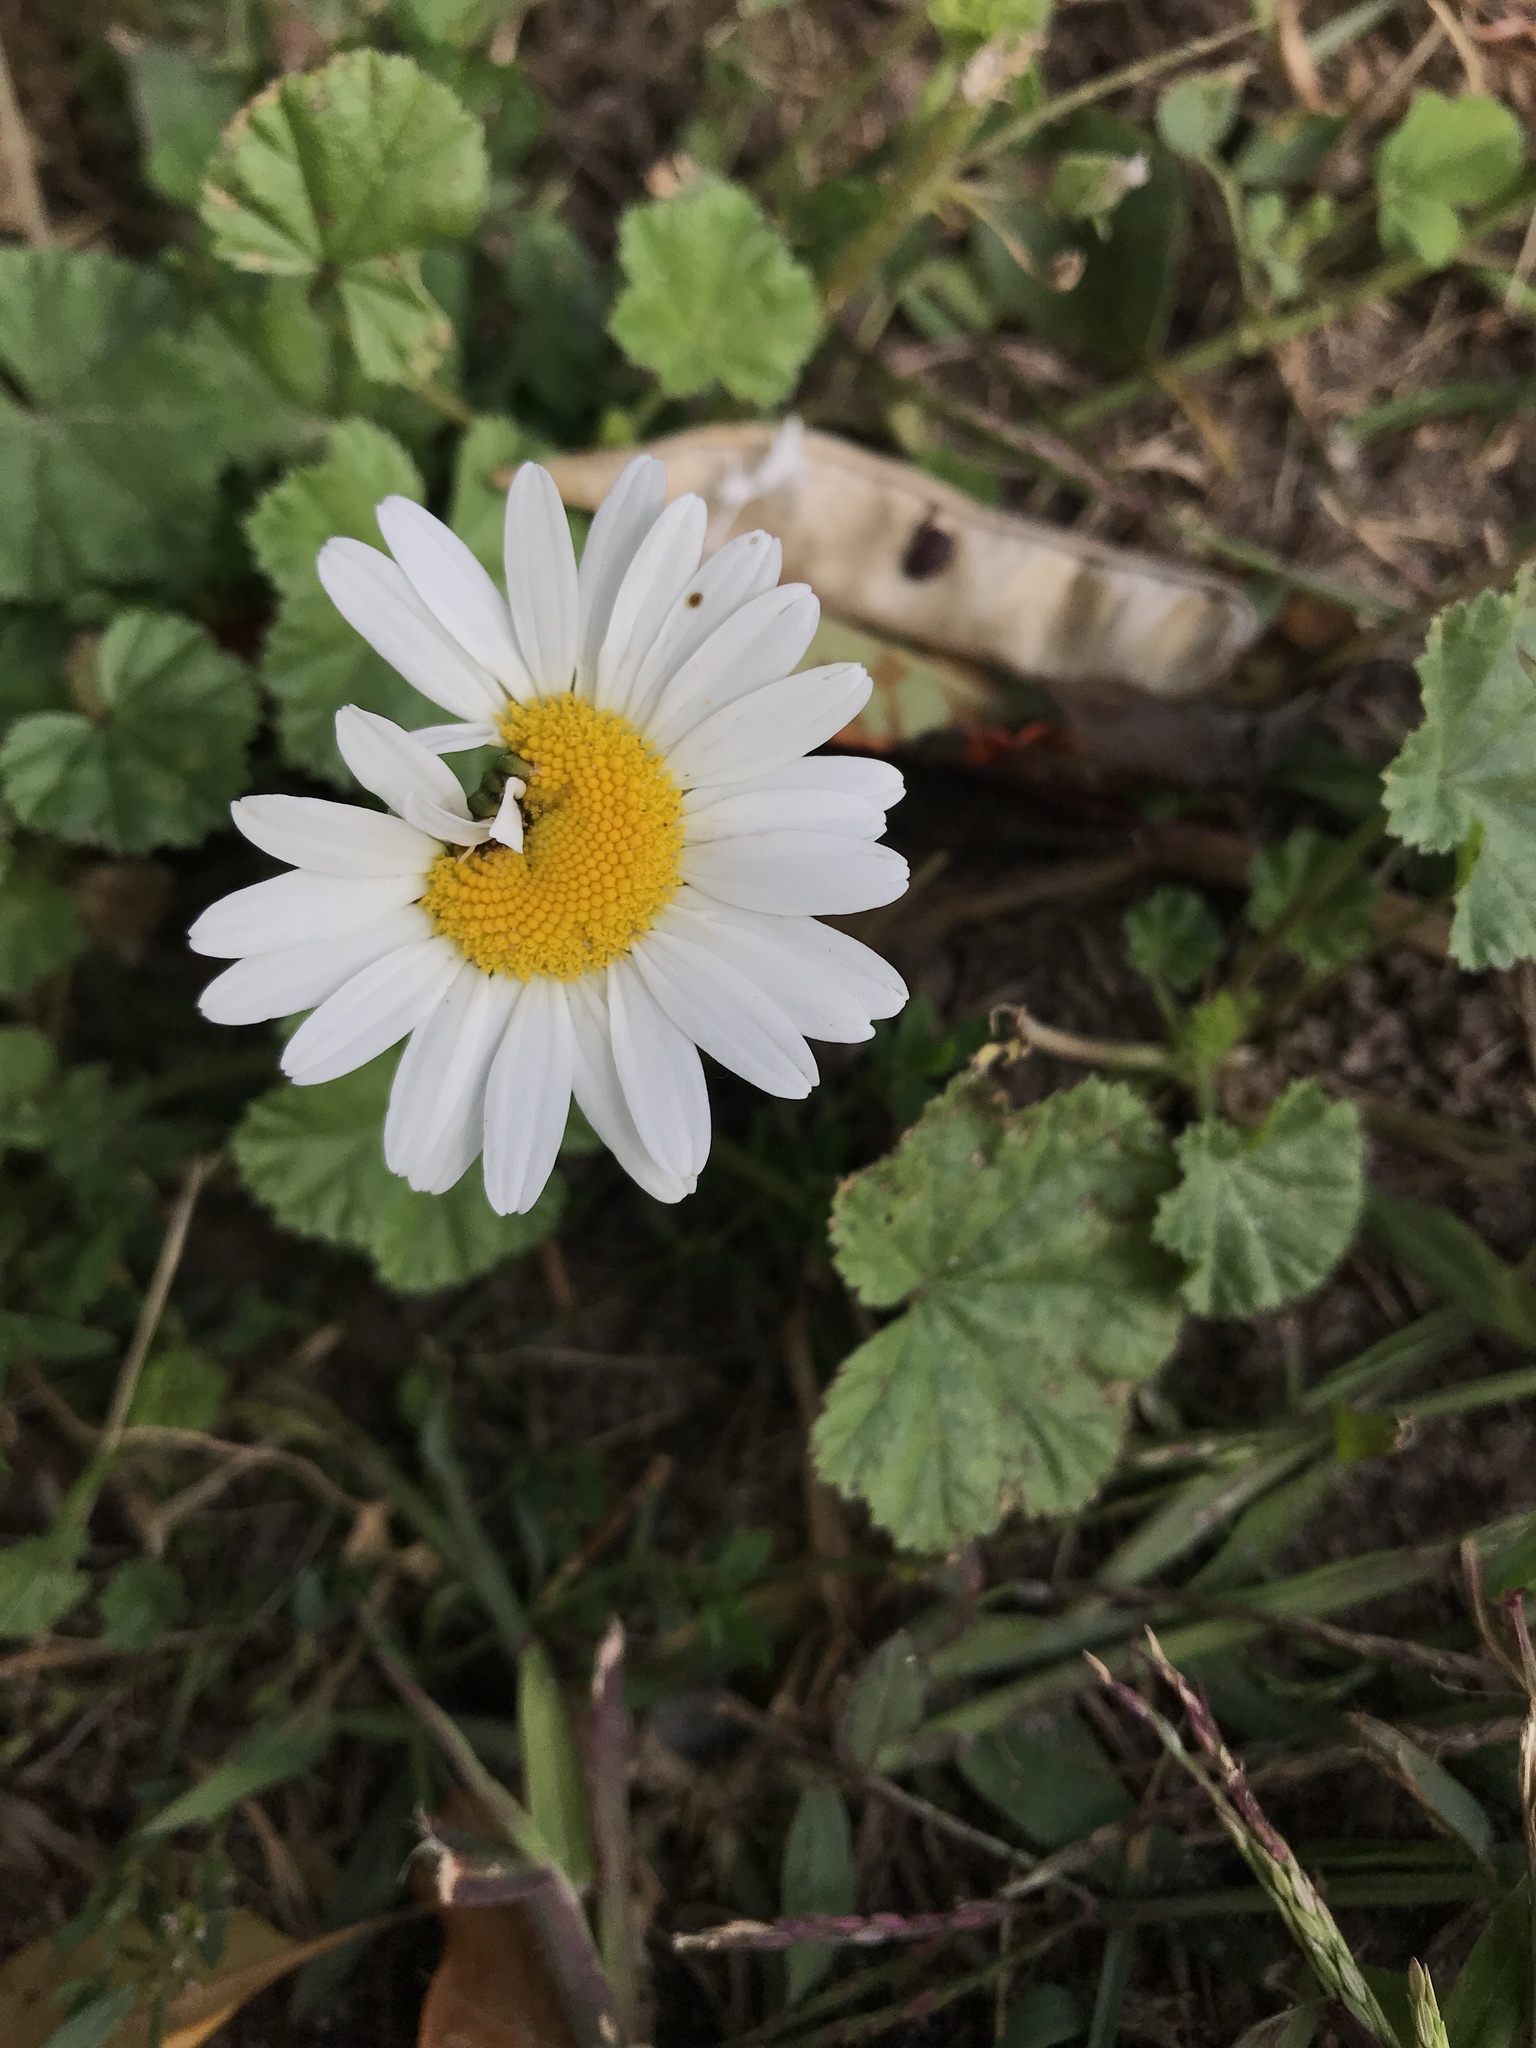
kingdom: Plantae
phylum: Tracheophyta
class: Magnoliopsida
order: Asterales
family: Asteraceae
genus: Leucanthemum
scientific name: Leucanthemum vulgare
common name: Oxeye daisy
